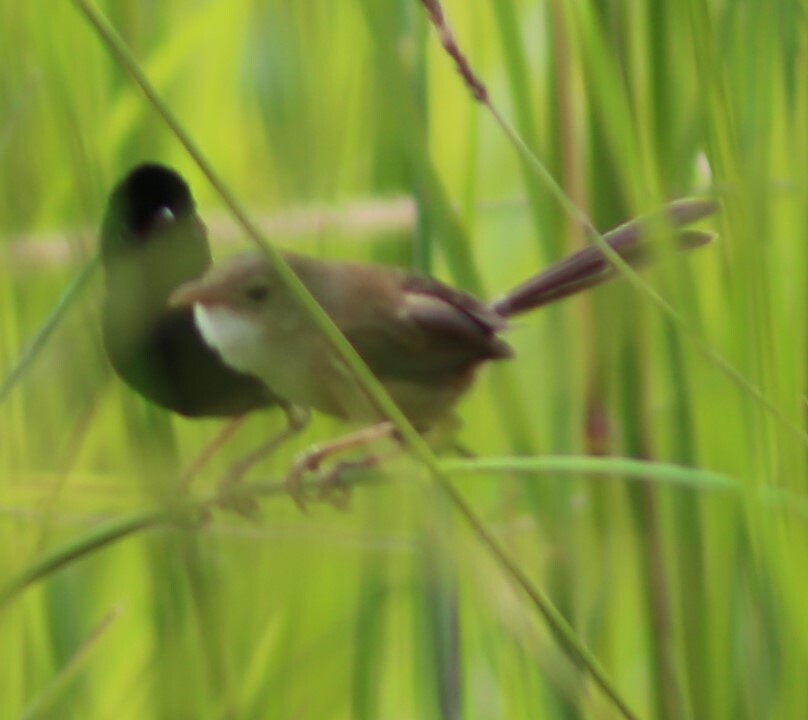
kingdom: Animalia
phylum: Chordata
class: Aves
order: Passeriformes
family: Maluridae
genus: Malurus
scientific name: Malurus melanocephalus
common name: Red-backed fairywren
